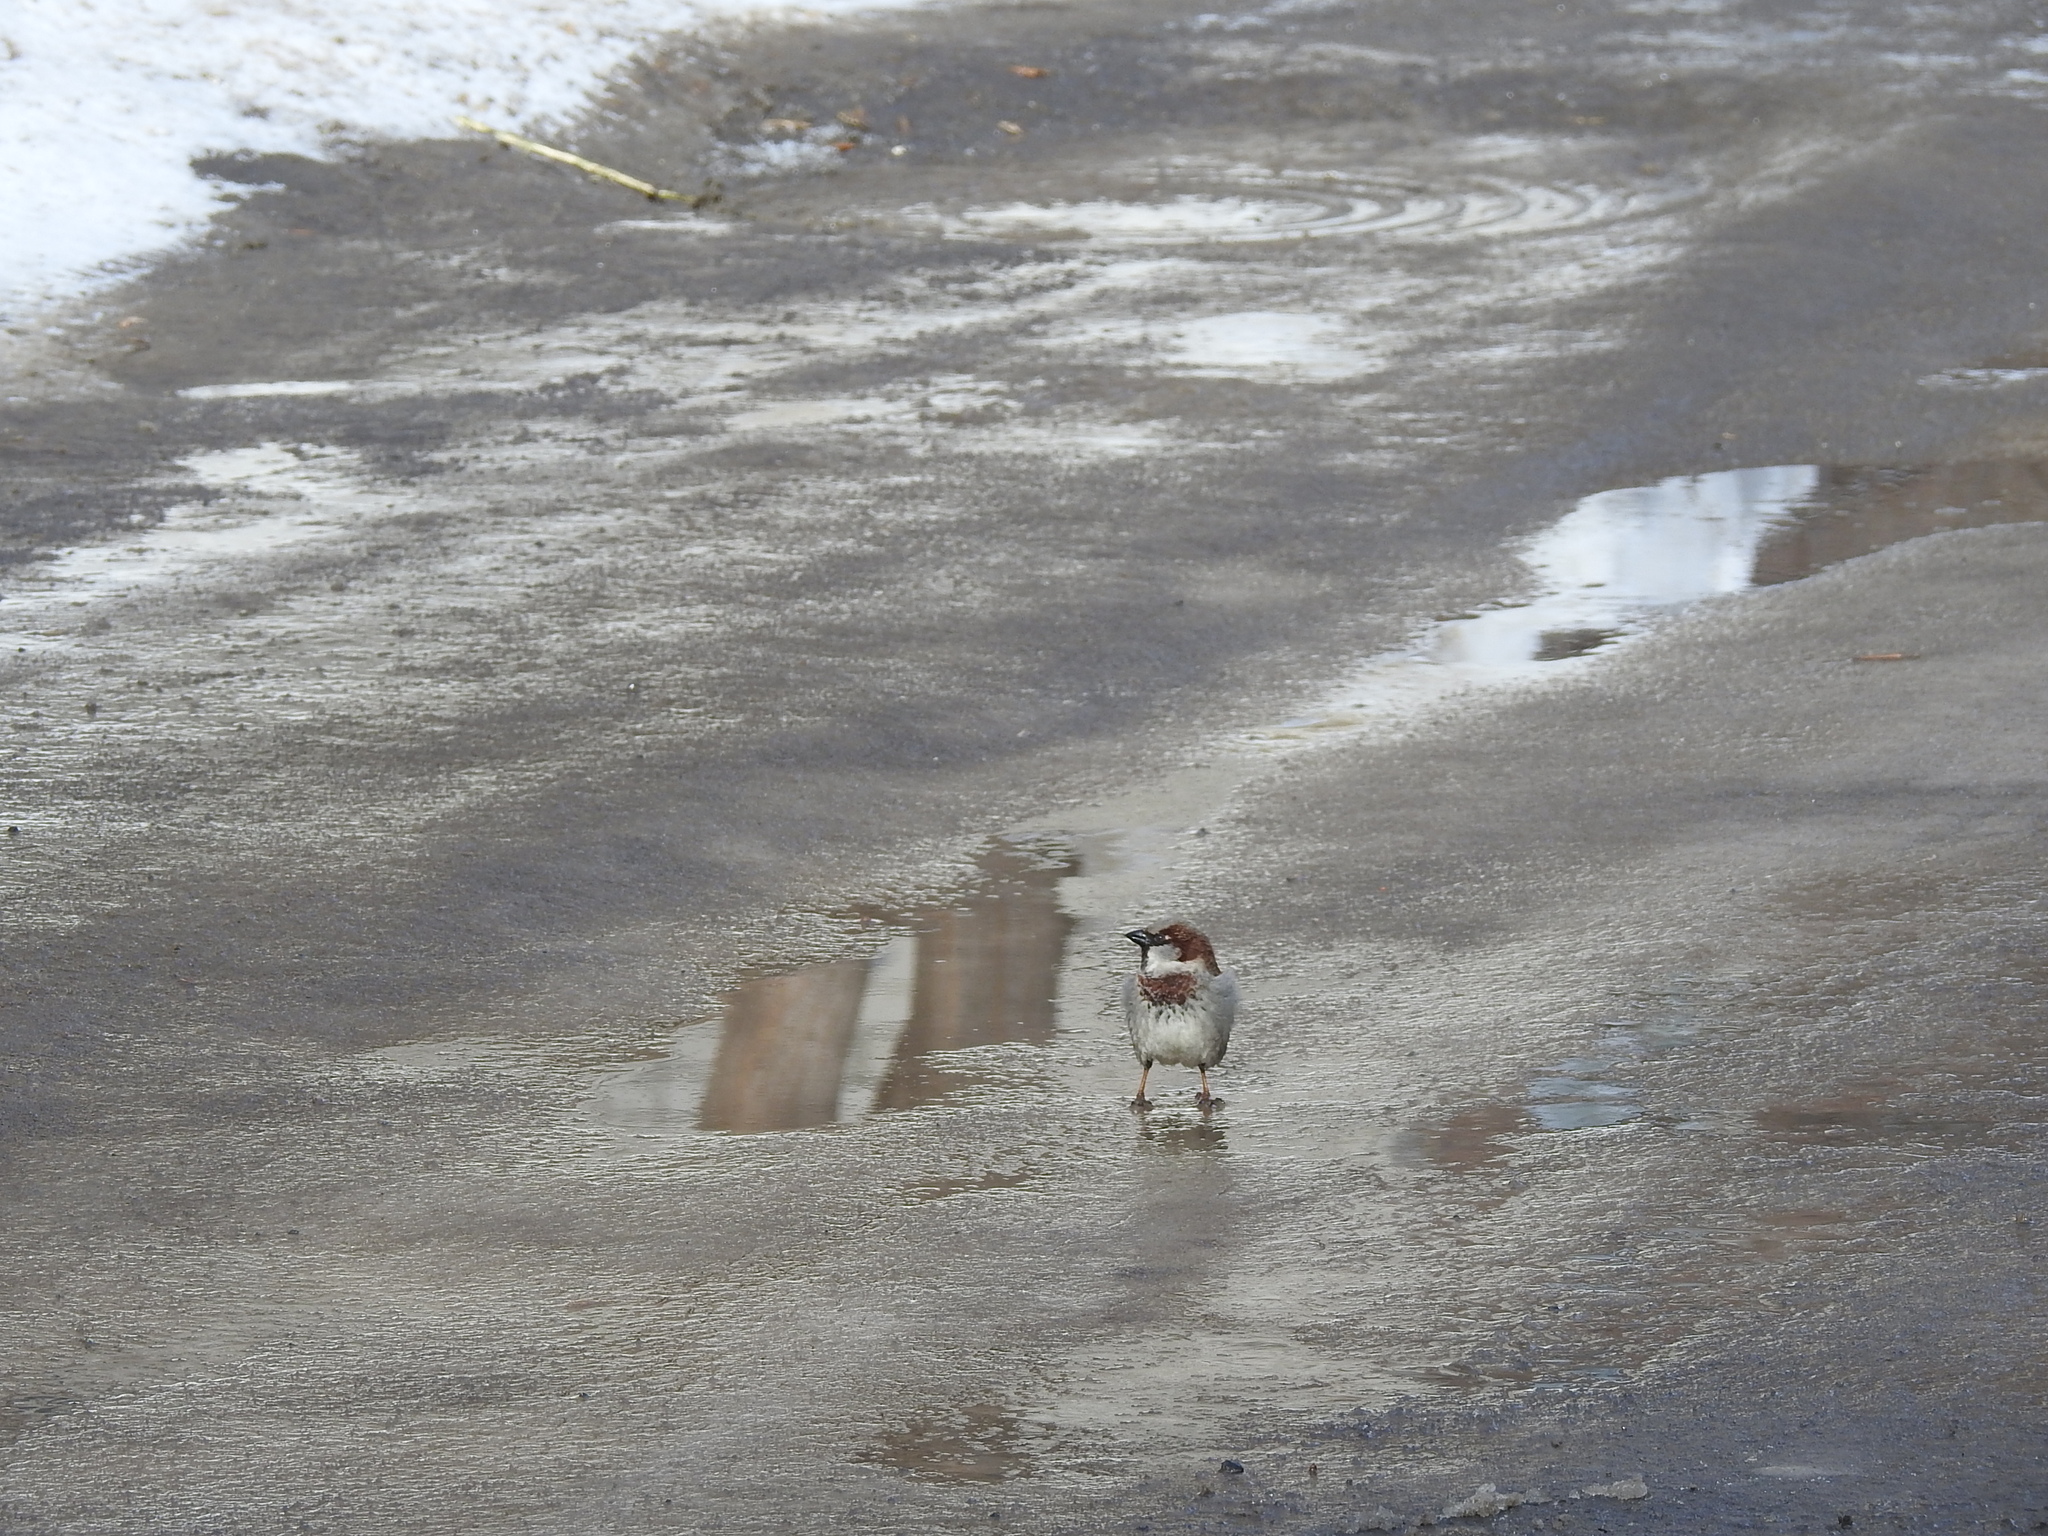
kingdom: Animalia
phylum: Chordata
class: Aves
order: Passeriformes
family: Passeridae
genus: Passer
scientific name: Passer domesticus
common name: House sparrow
